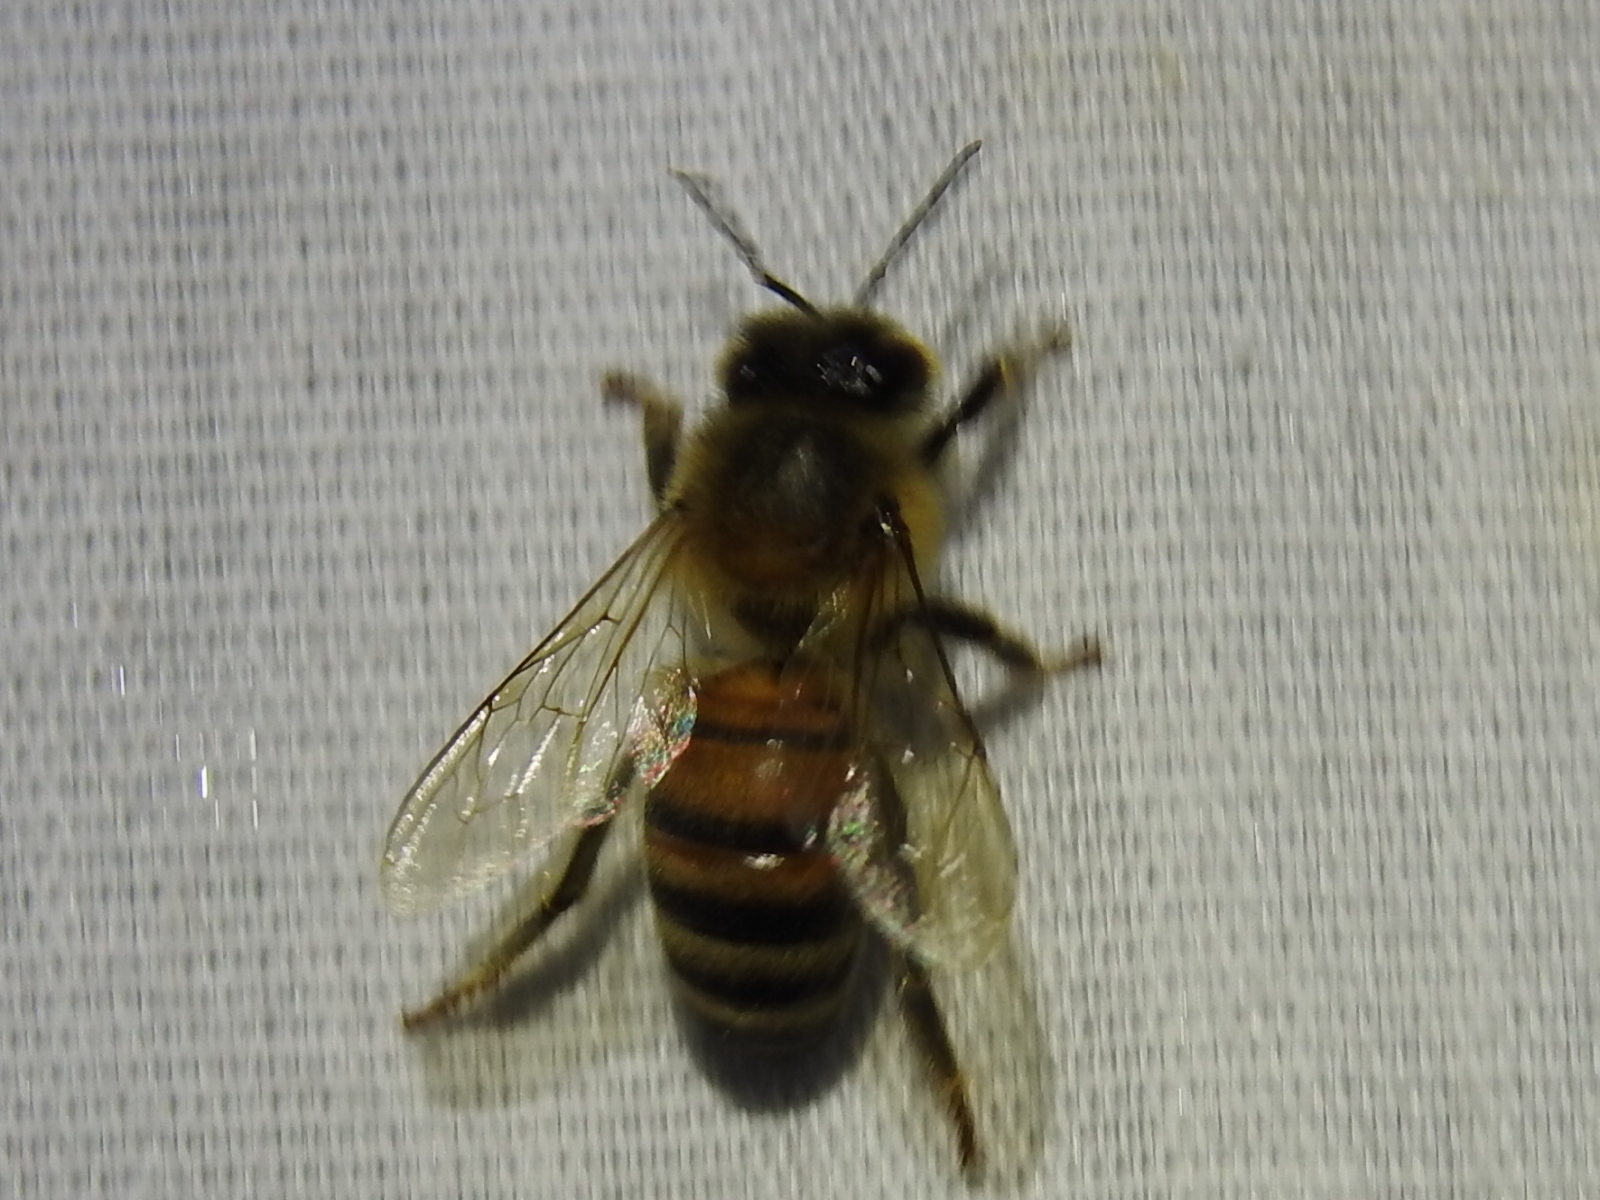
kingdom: Animalia
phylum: Arthropoda
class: Insecta
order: Hymenoptera
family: Apidae
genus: Apis
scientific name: Apis mellifera
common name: Honey bee
